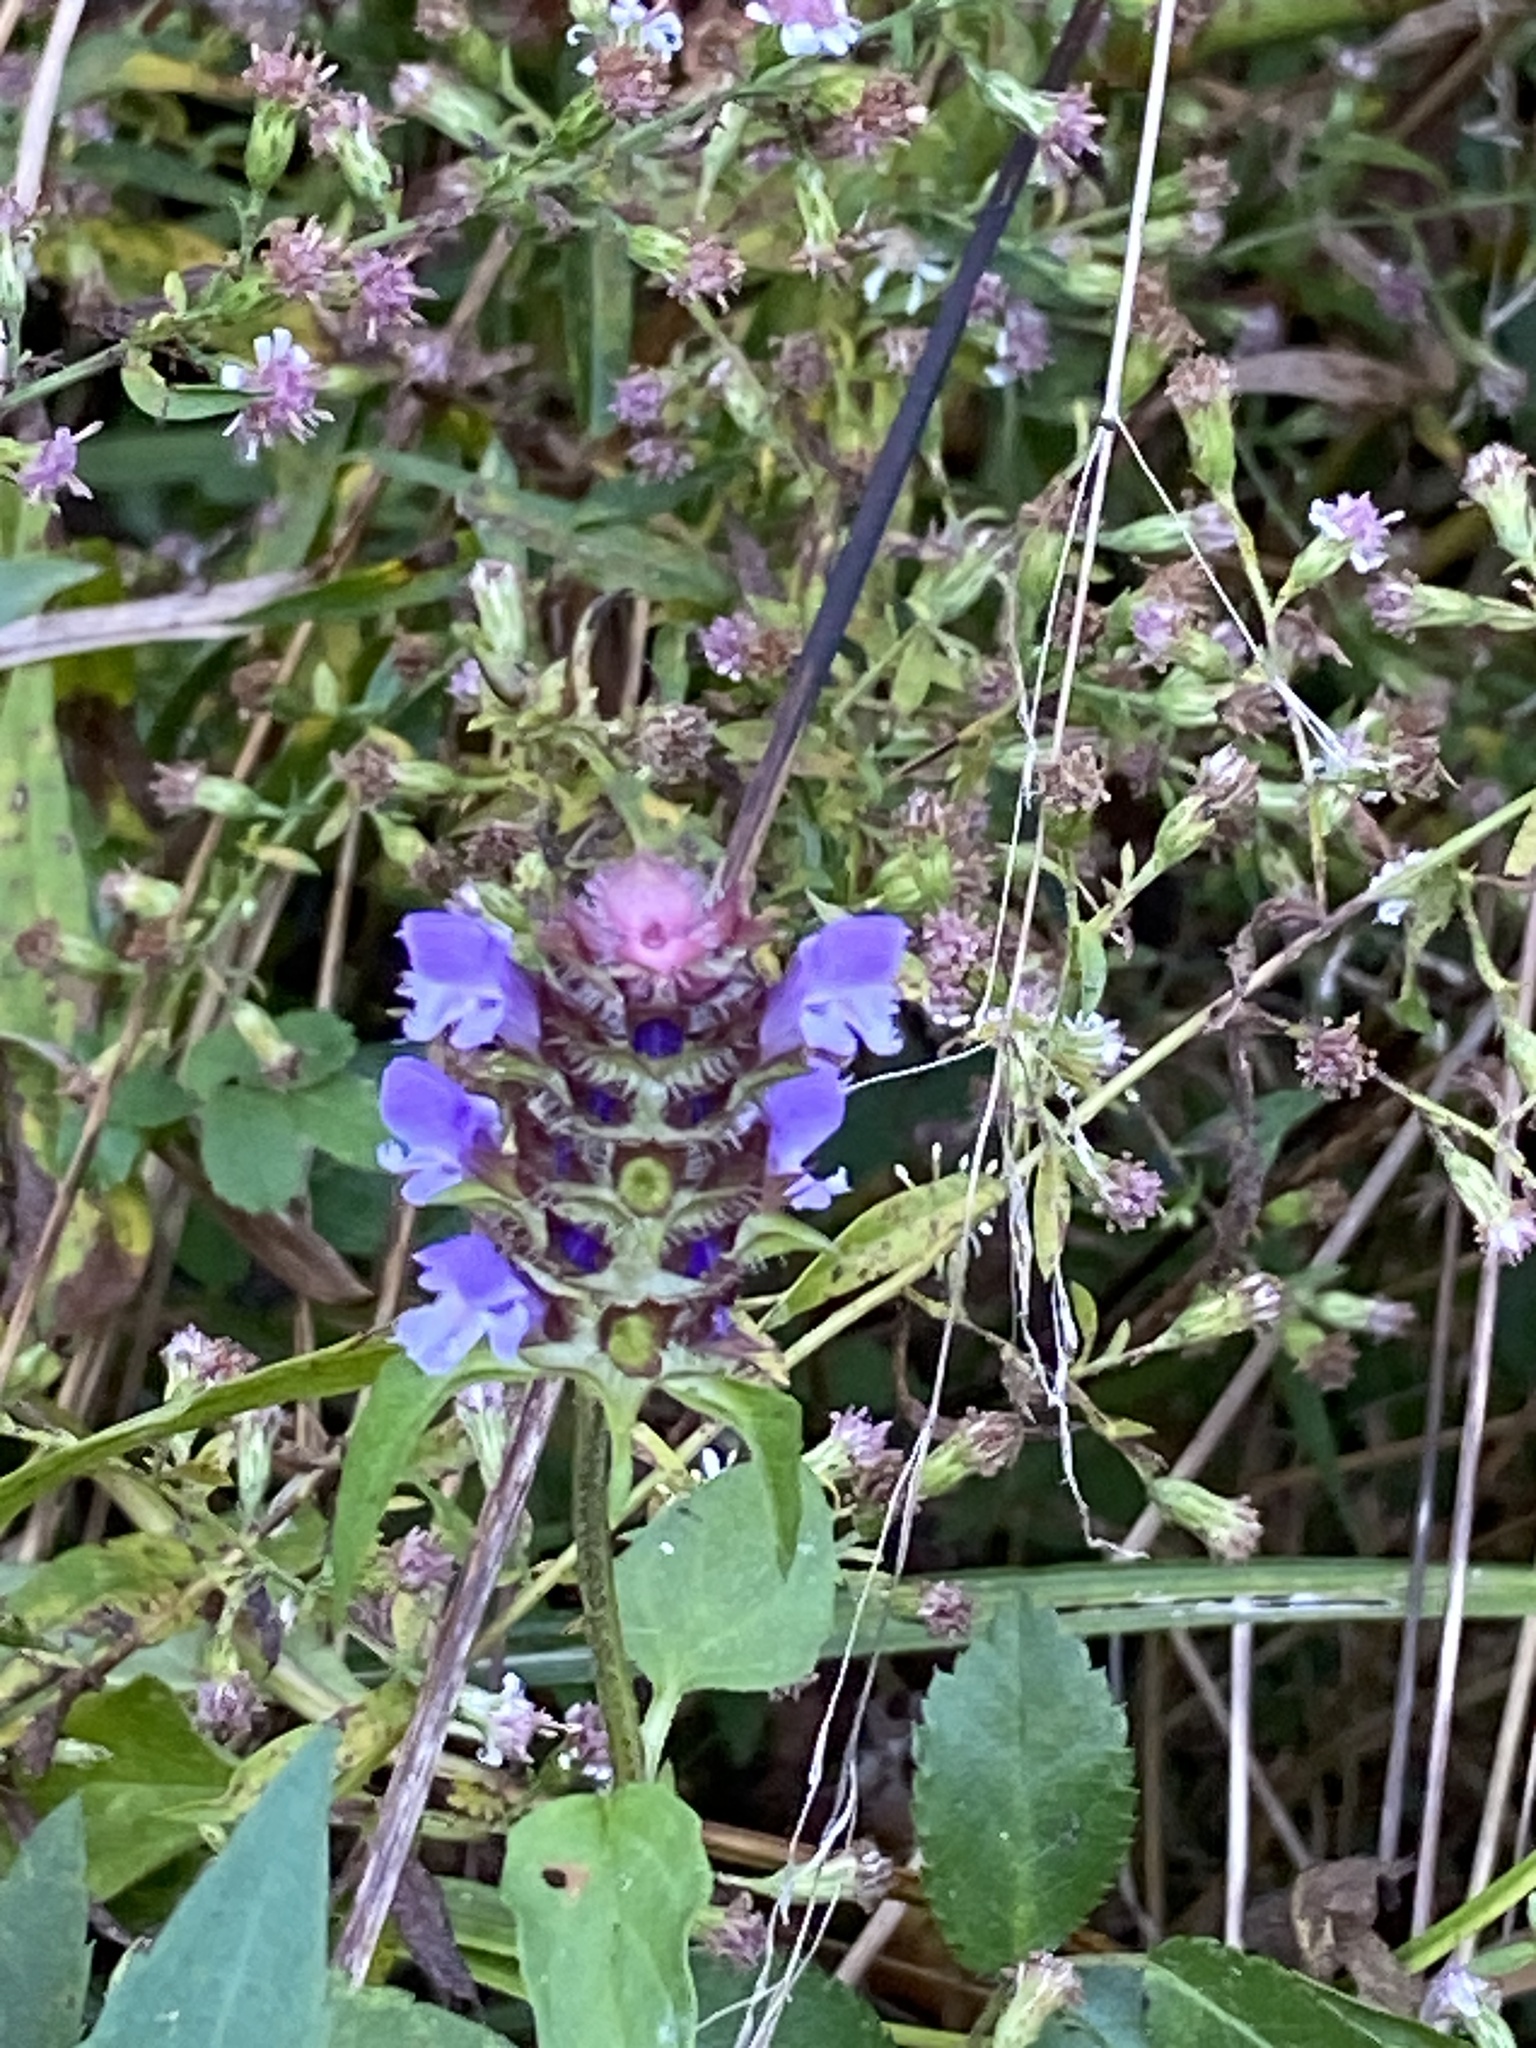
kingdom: Plantae
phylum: Tracheophyta
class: Magnoliopsida
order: Lamiales
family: Lamiaceae
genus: Prunella
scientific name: Prunella vulgaris
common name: Heal-all
